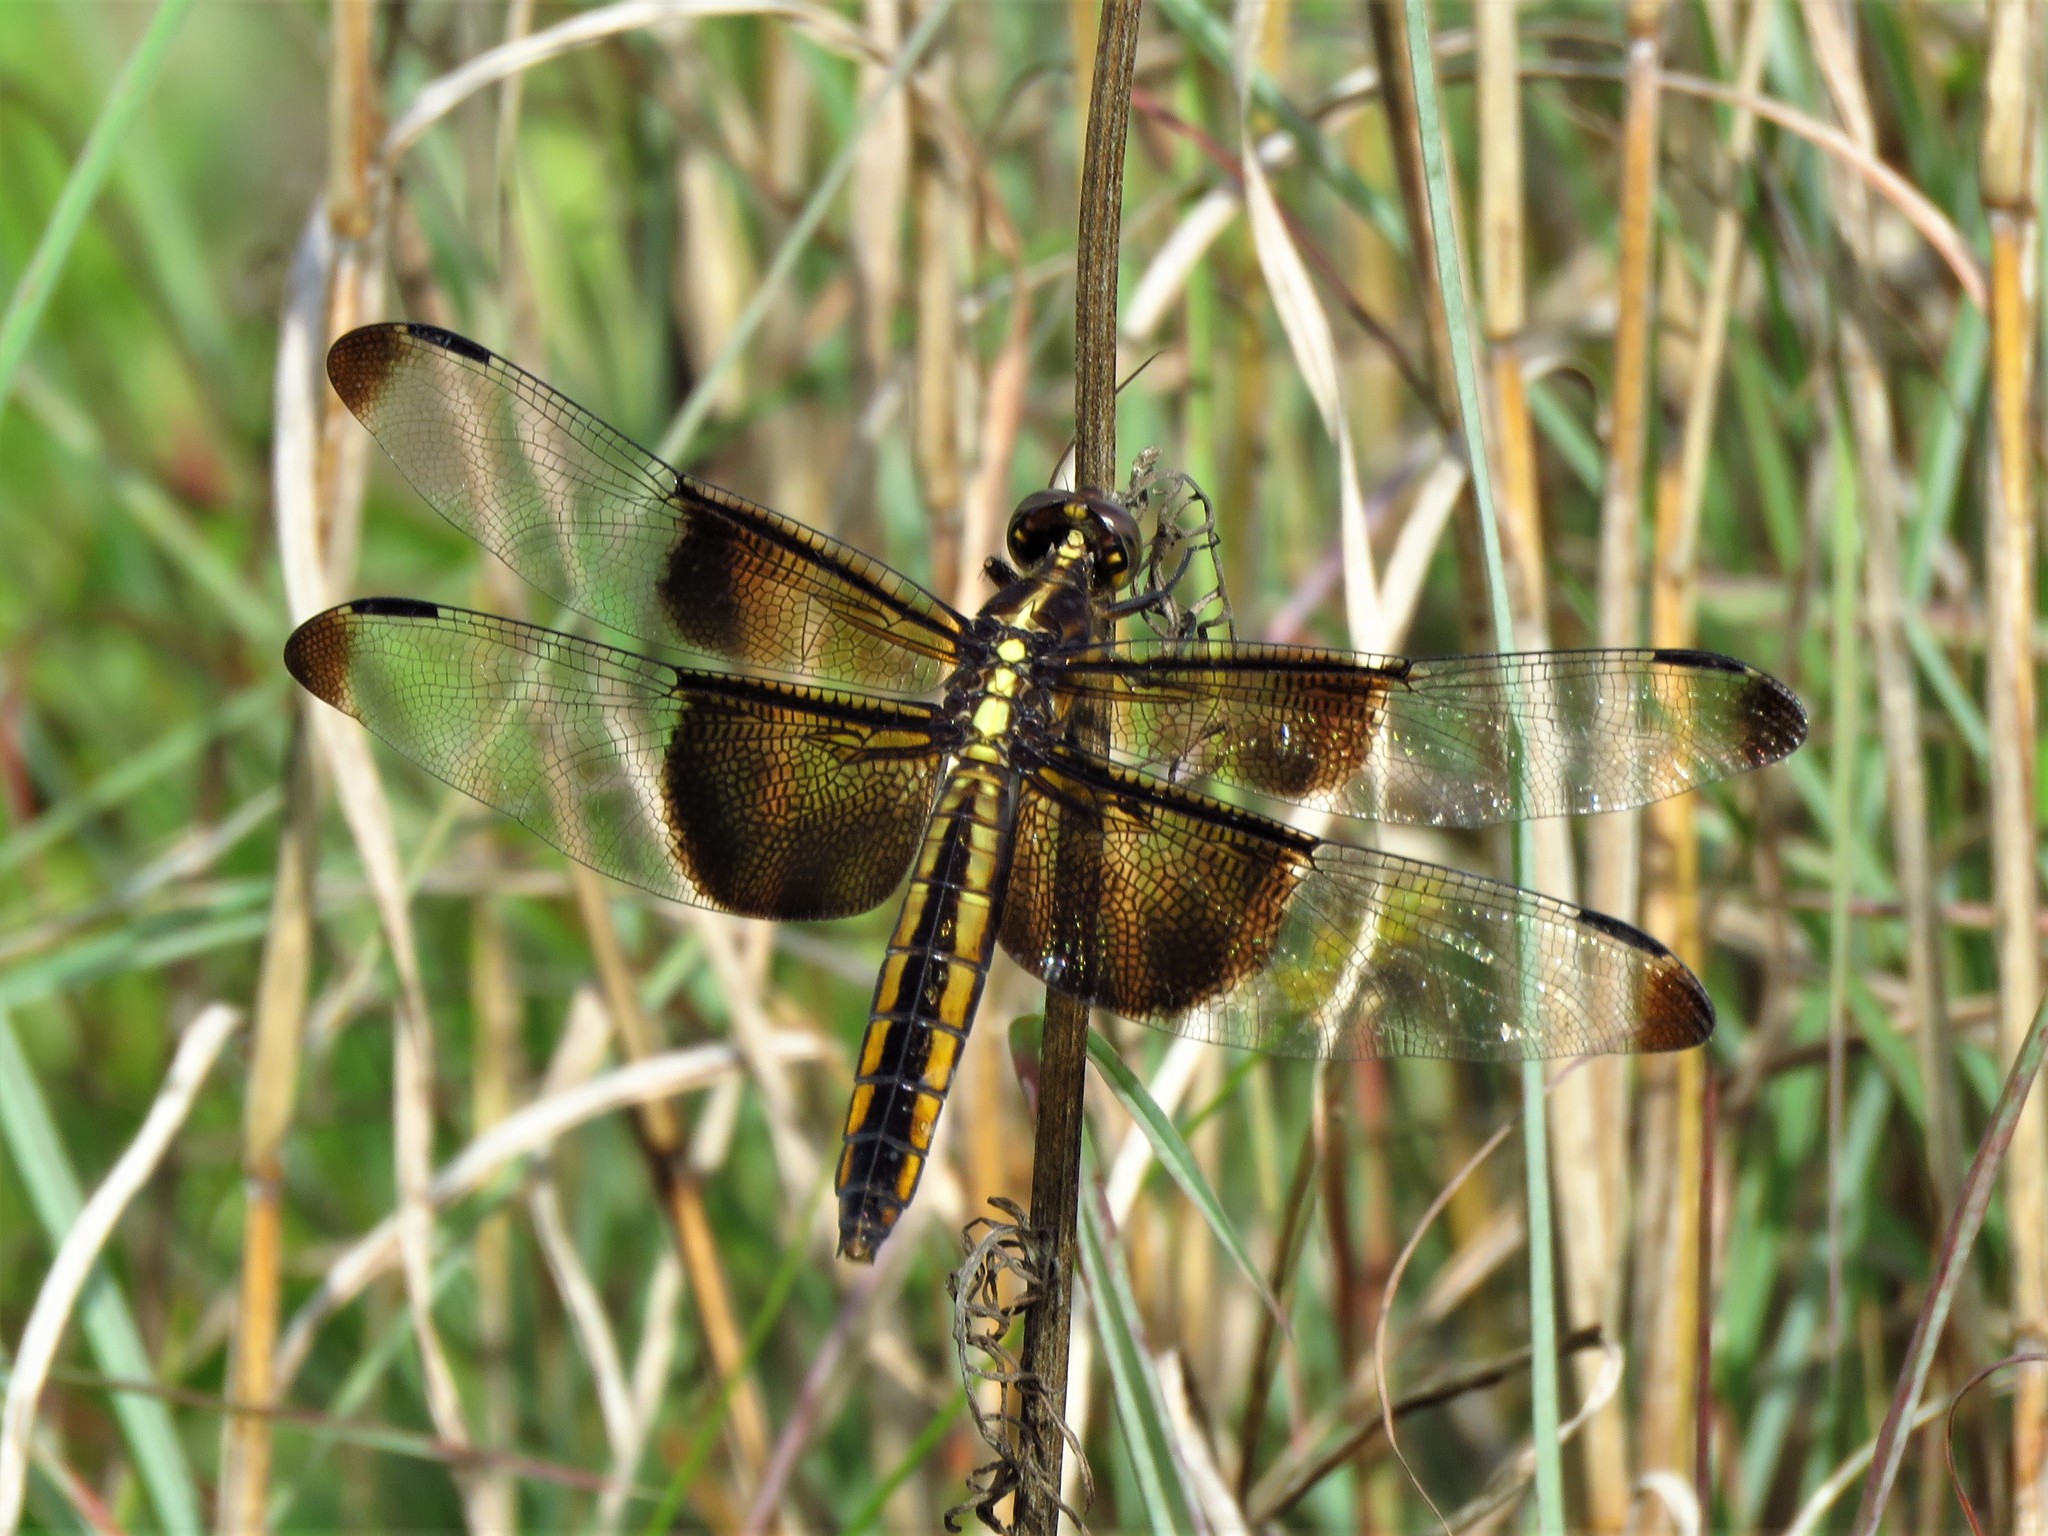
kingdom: Animalia
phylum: Arthropoda
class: Insecta
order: Odonata
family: Libellulidae
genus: Libellula
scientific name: Libellula luctuosa
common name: Widow skimmer
